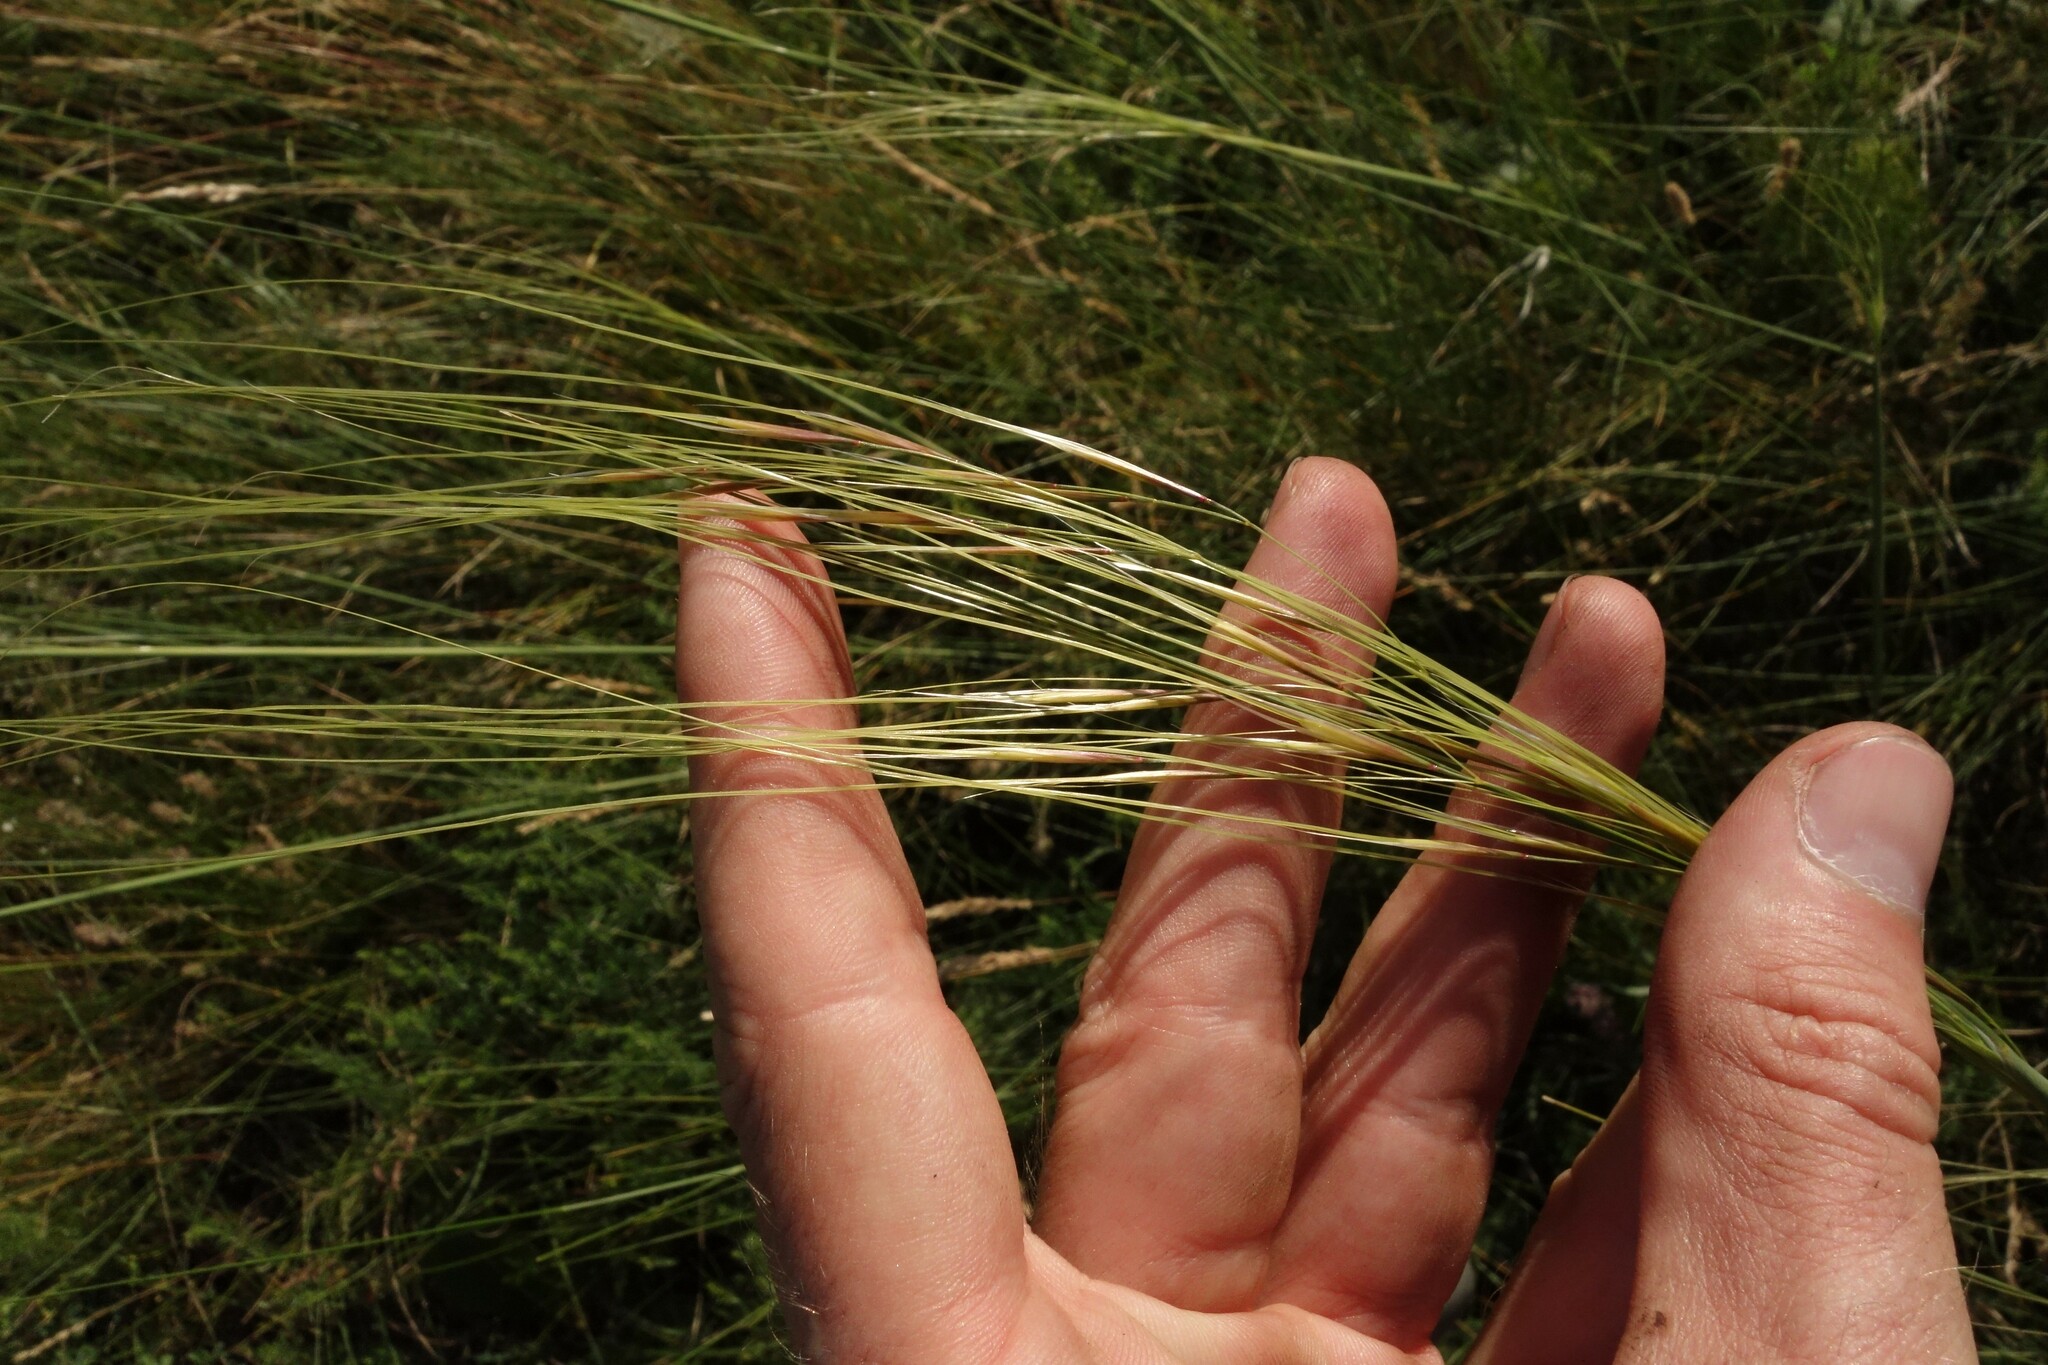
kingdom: Plantae
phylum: Tracheophyta
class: Liliopsida
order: Poales
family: Poaceae
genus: Stipa
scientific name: Stipa capillata
